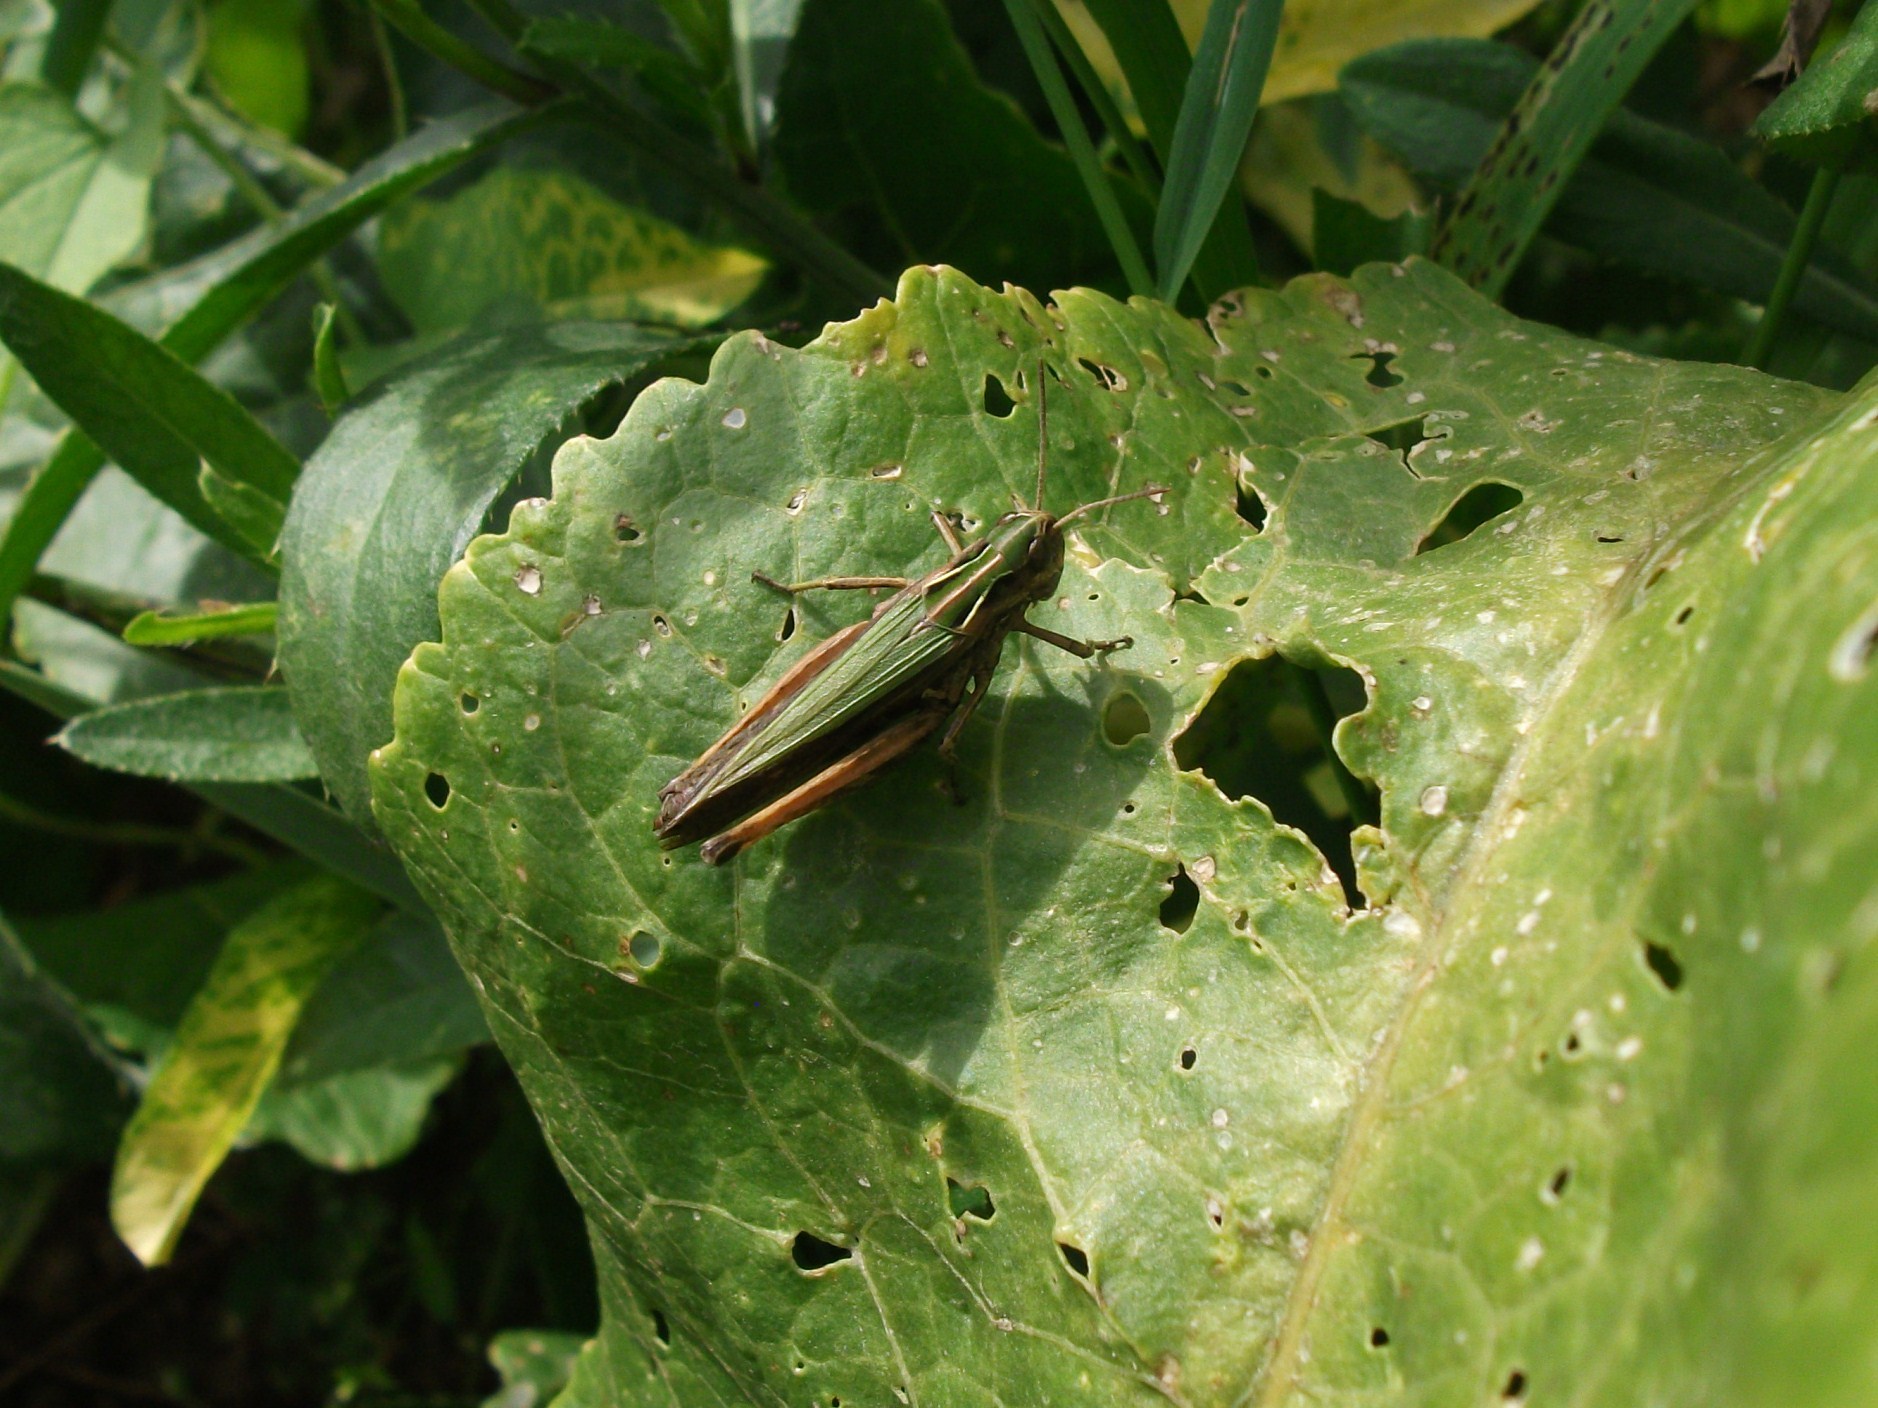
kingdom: Animalia
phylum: Arthropoda
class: Insecta
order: Orthoptera
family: Acrididae
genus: Omocestus
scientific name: Omocestus rufipes
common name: Woodland grasshopper
